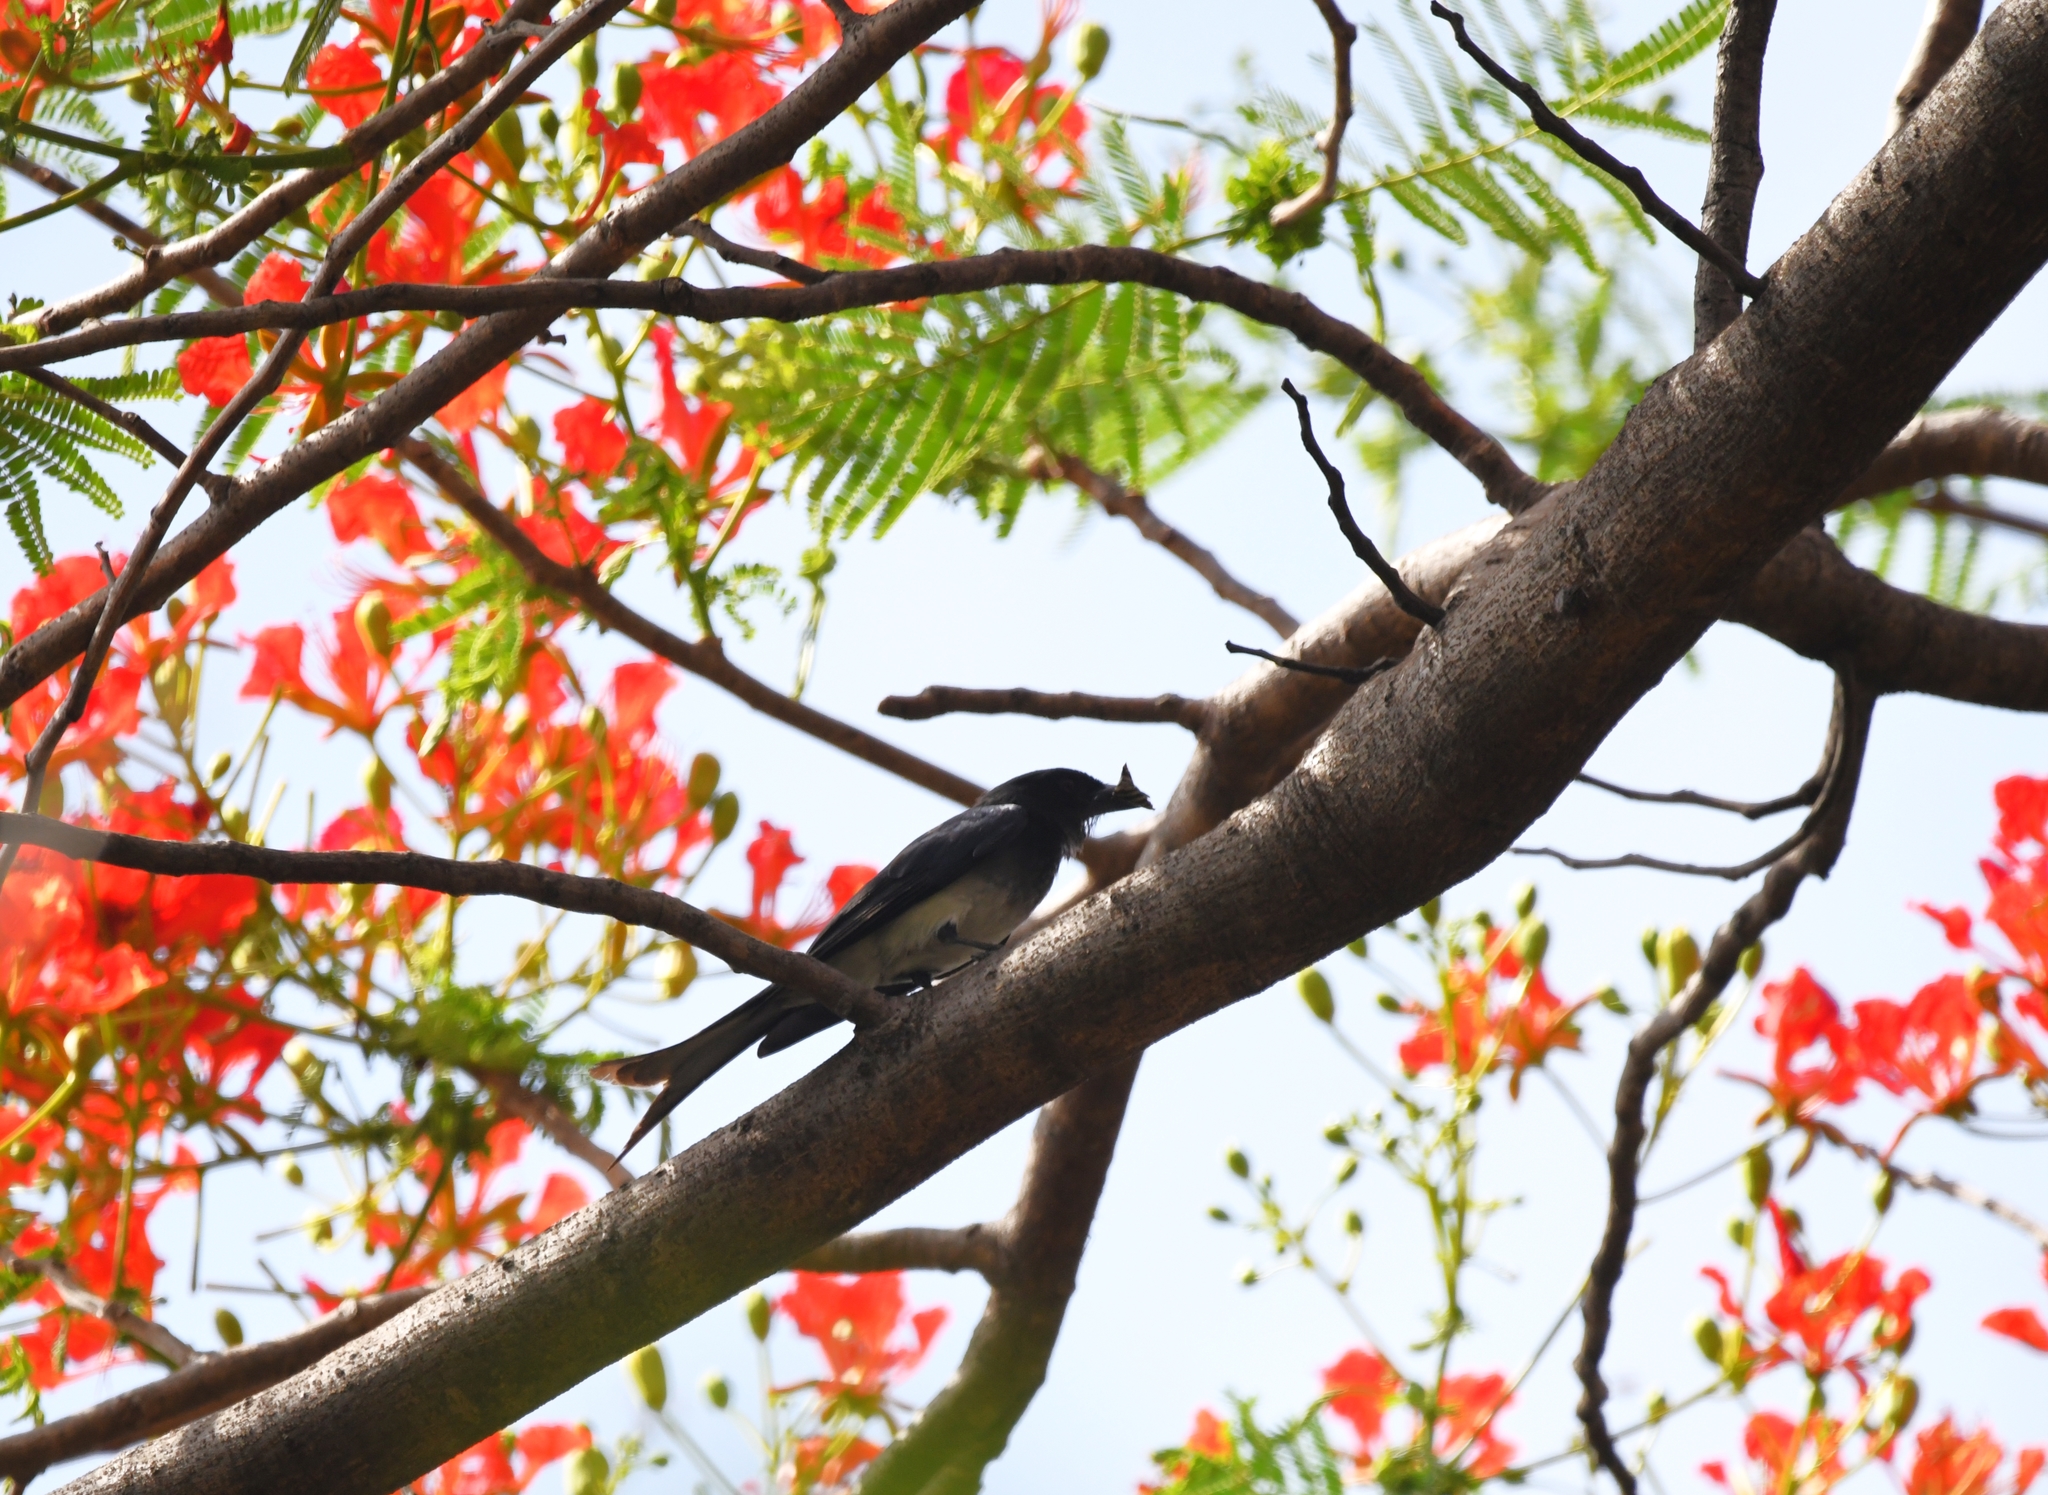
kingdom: Animalia
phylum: Chordata
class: Aves
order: Passeriformes
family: Dicruridae
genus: Dicrurus
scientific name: Dicrurus caerulescens
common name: White-bellied drongo
